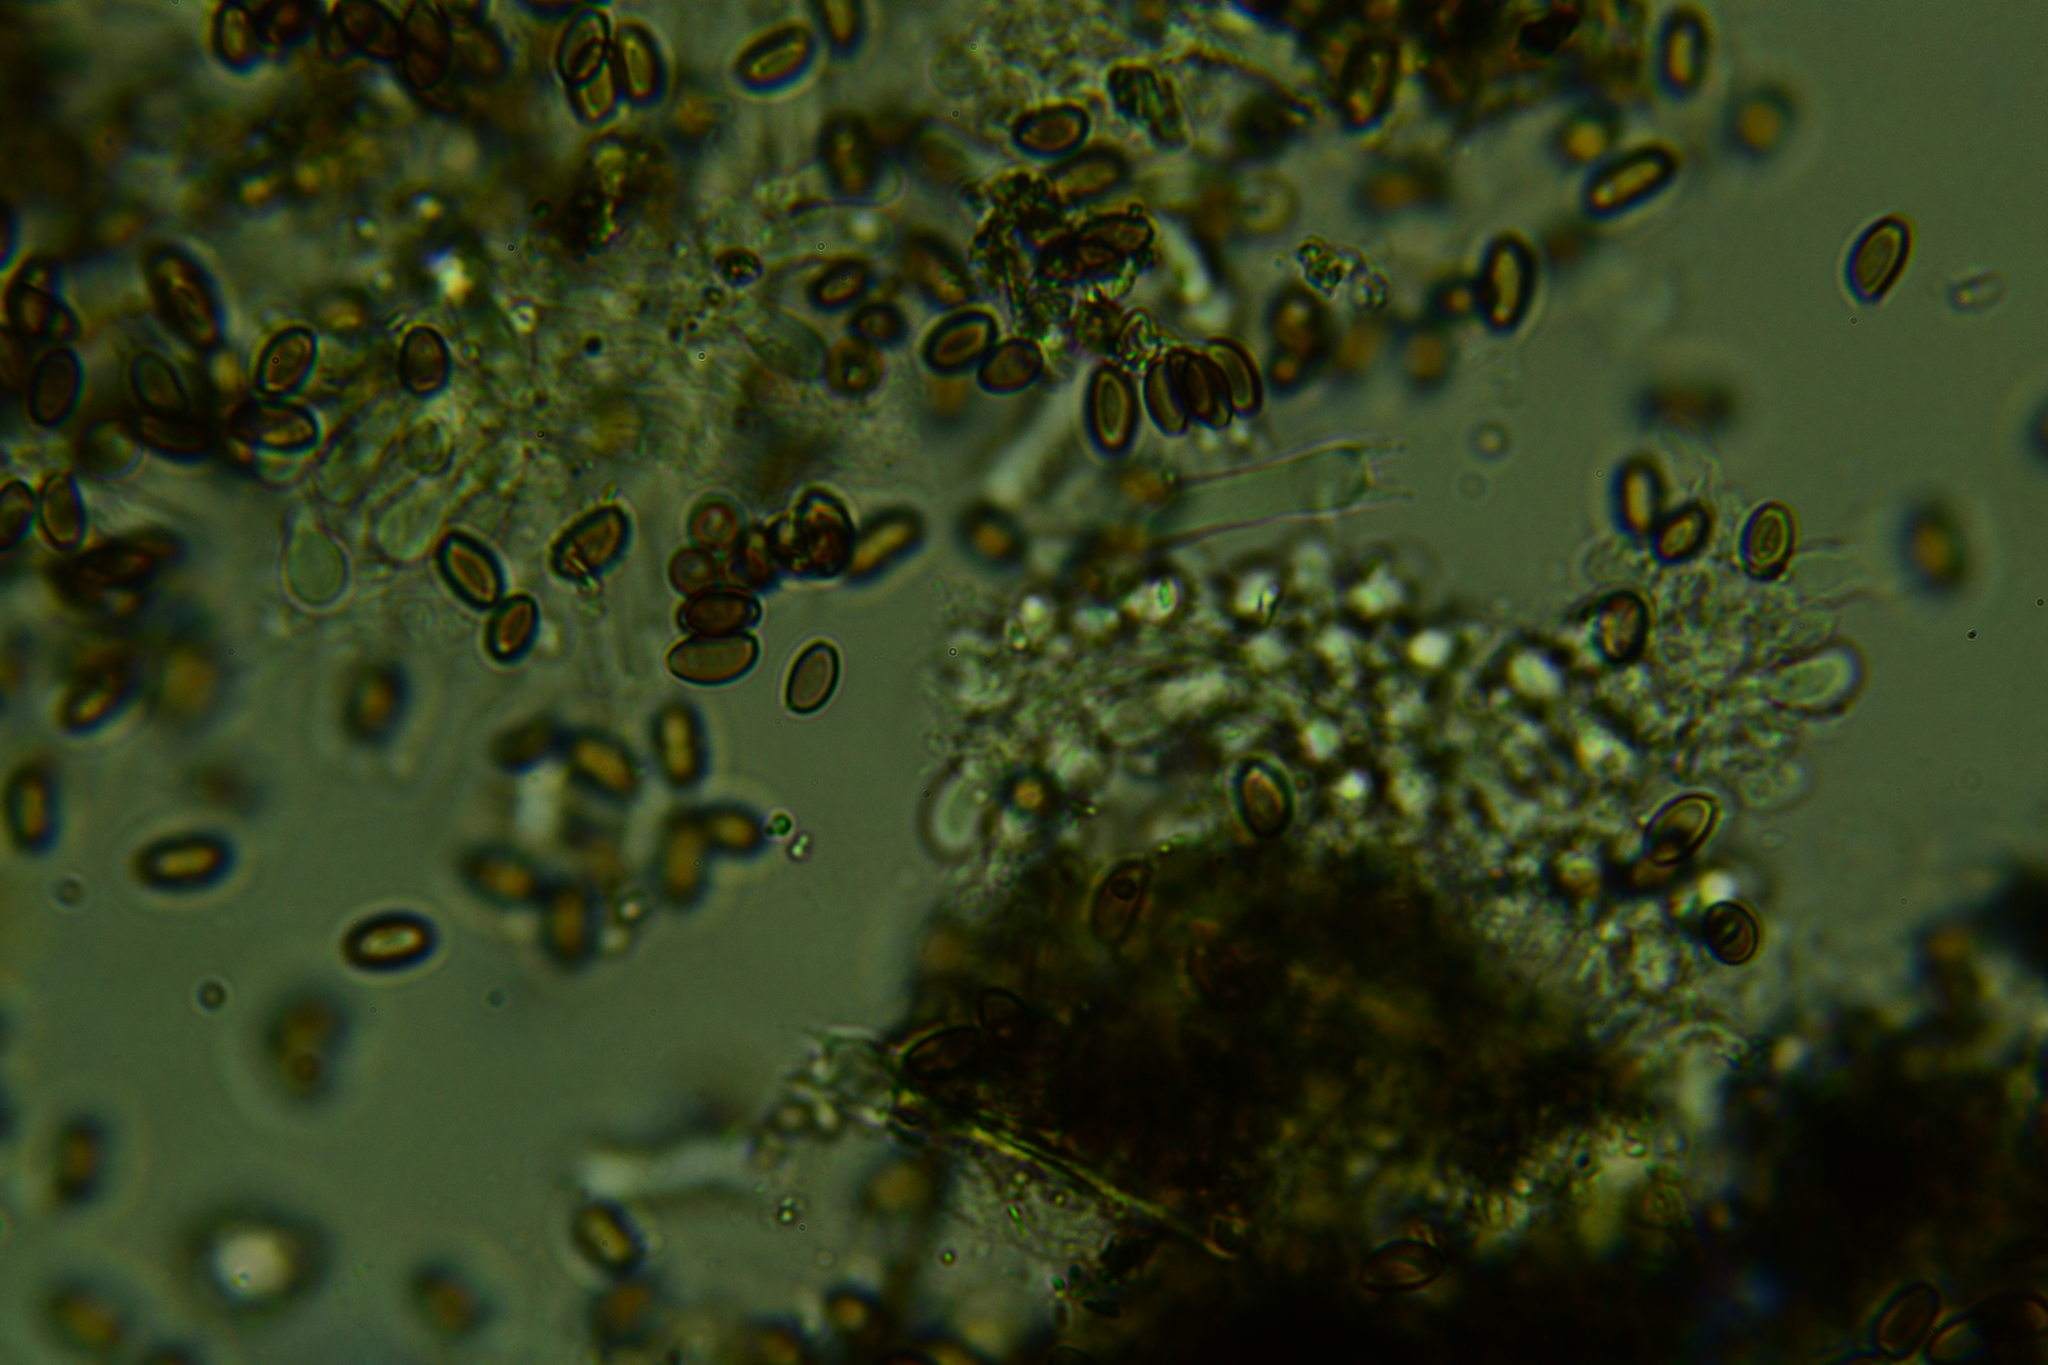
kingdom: Fungi
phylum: Basidiomycota
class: Agaricomycetes
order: Agaricales
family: Hymenogastraceae
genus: Psilocybe
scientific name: Psilocybe tuberifera
